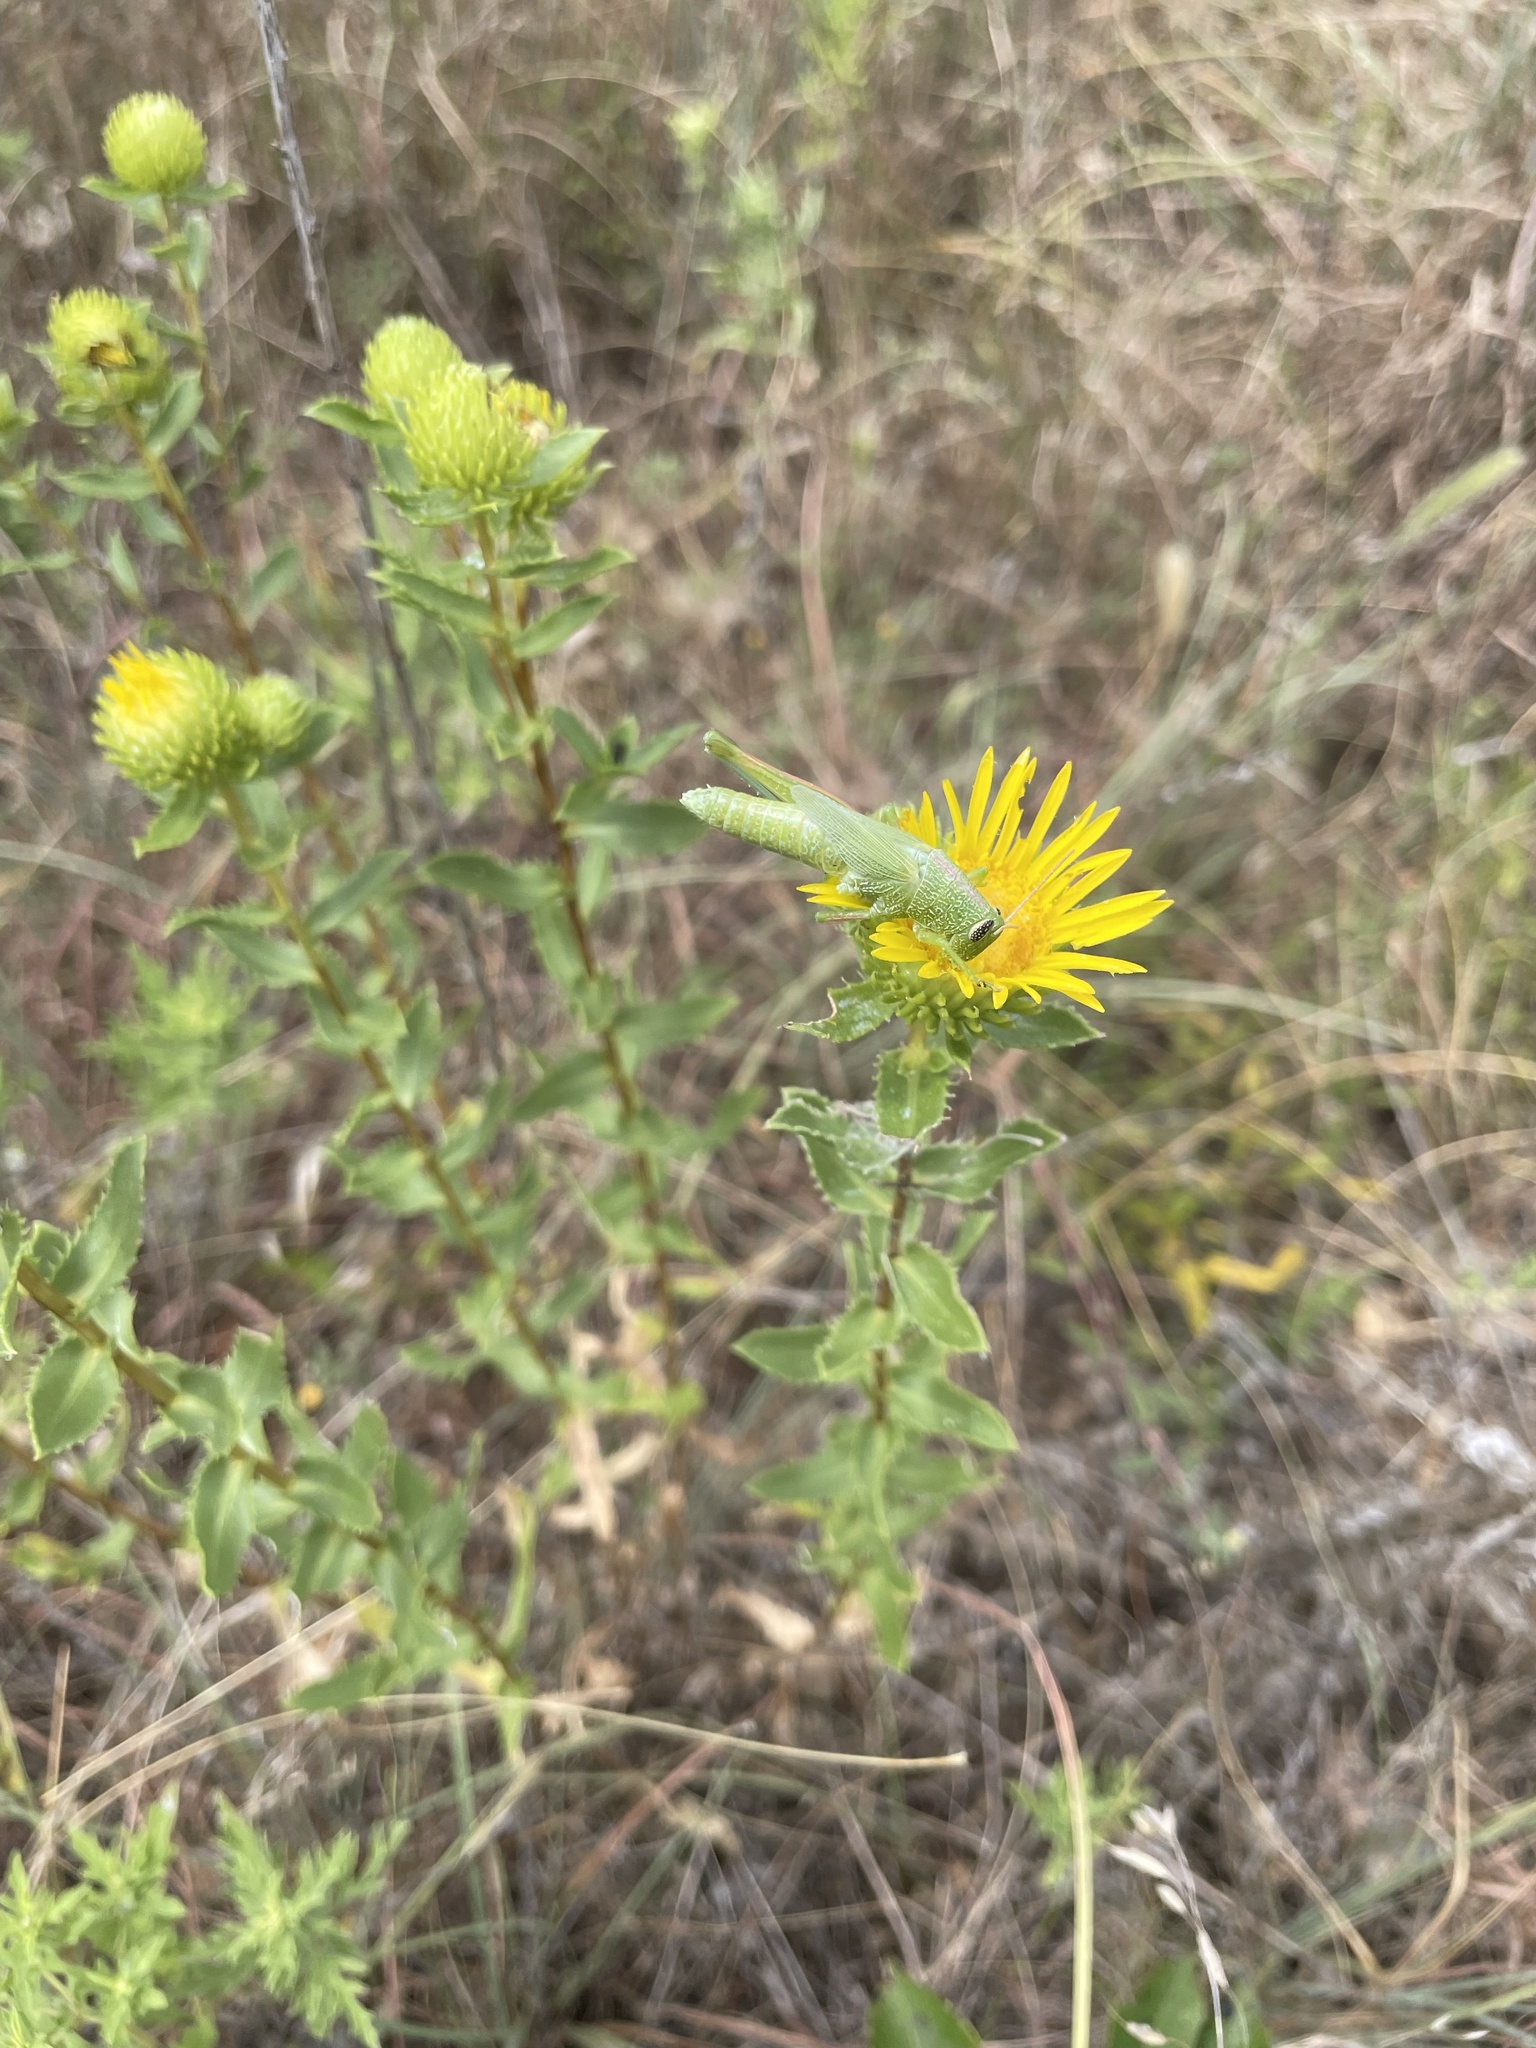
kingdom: Plantae
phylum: Tracheophyta
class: Magnoliopsida
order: Asterales
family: Asteraceae
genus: Grindelia
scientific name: Grindelia lanceolata
